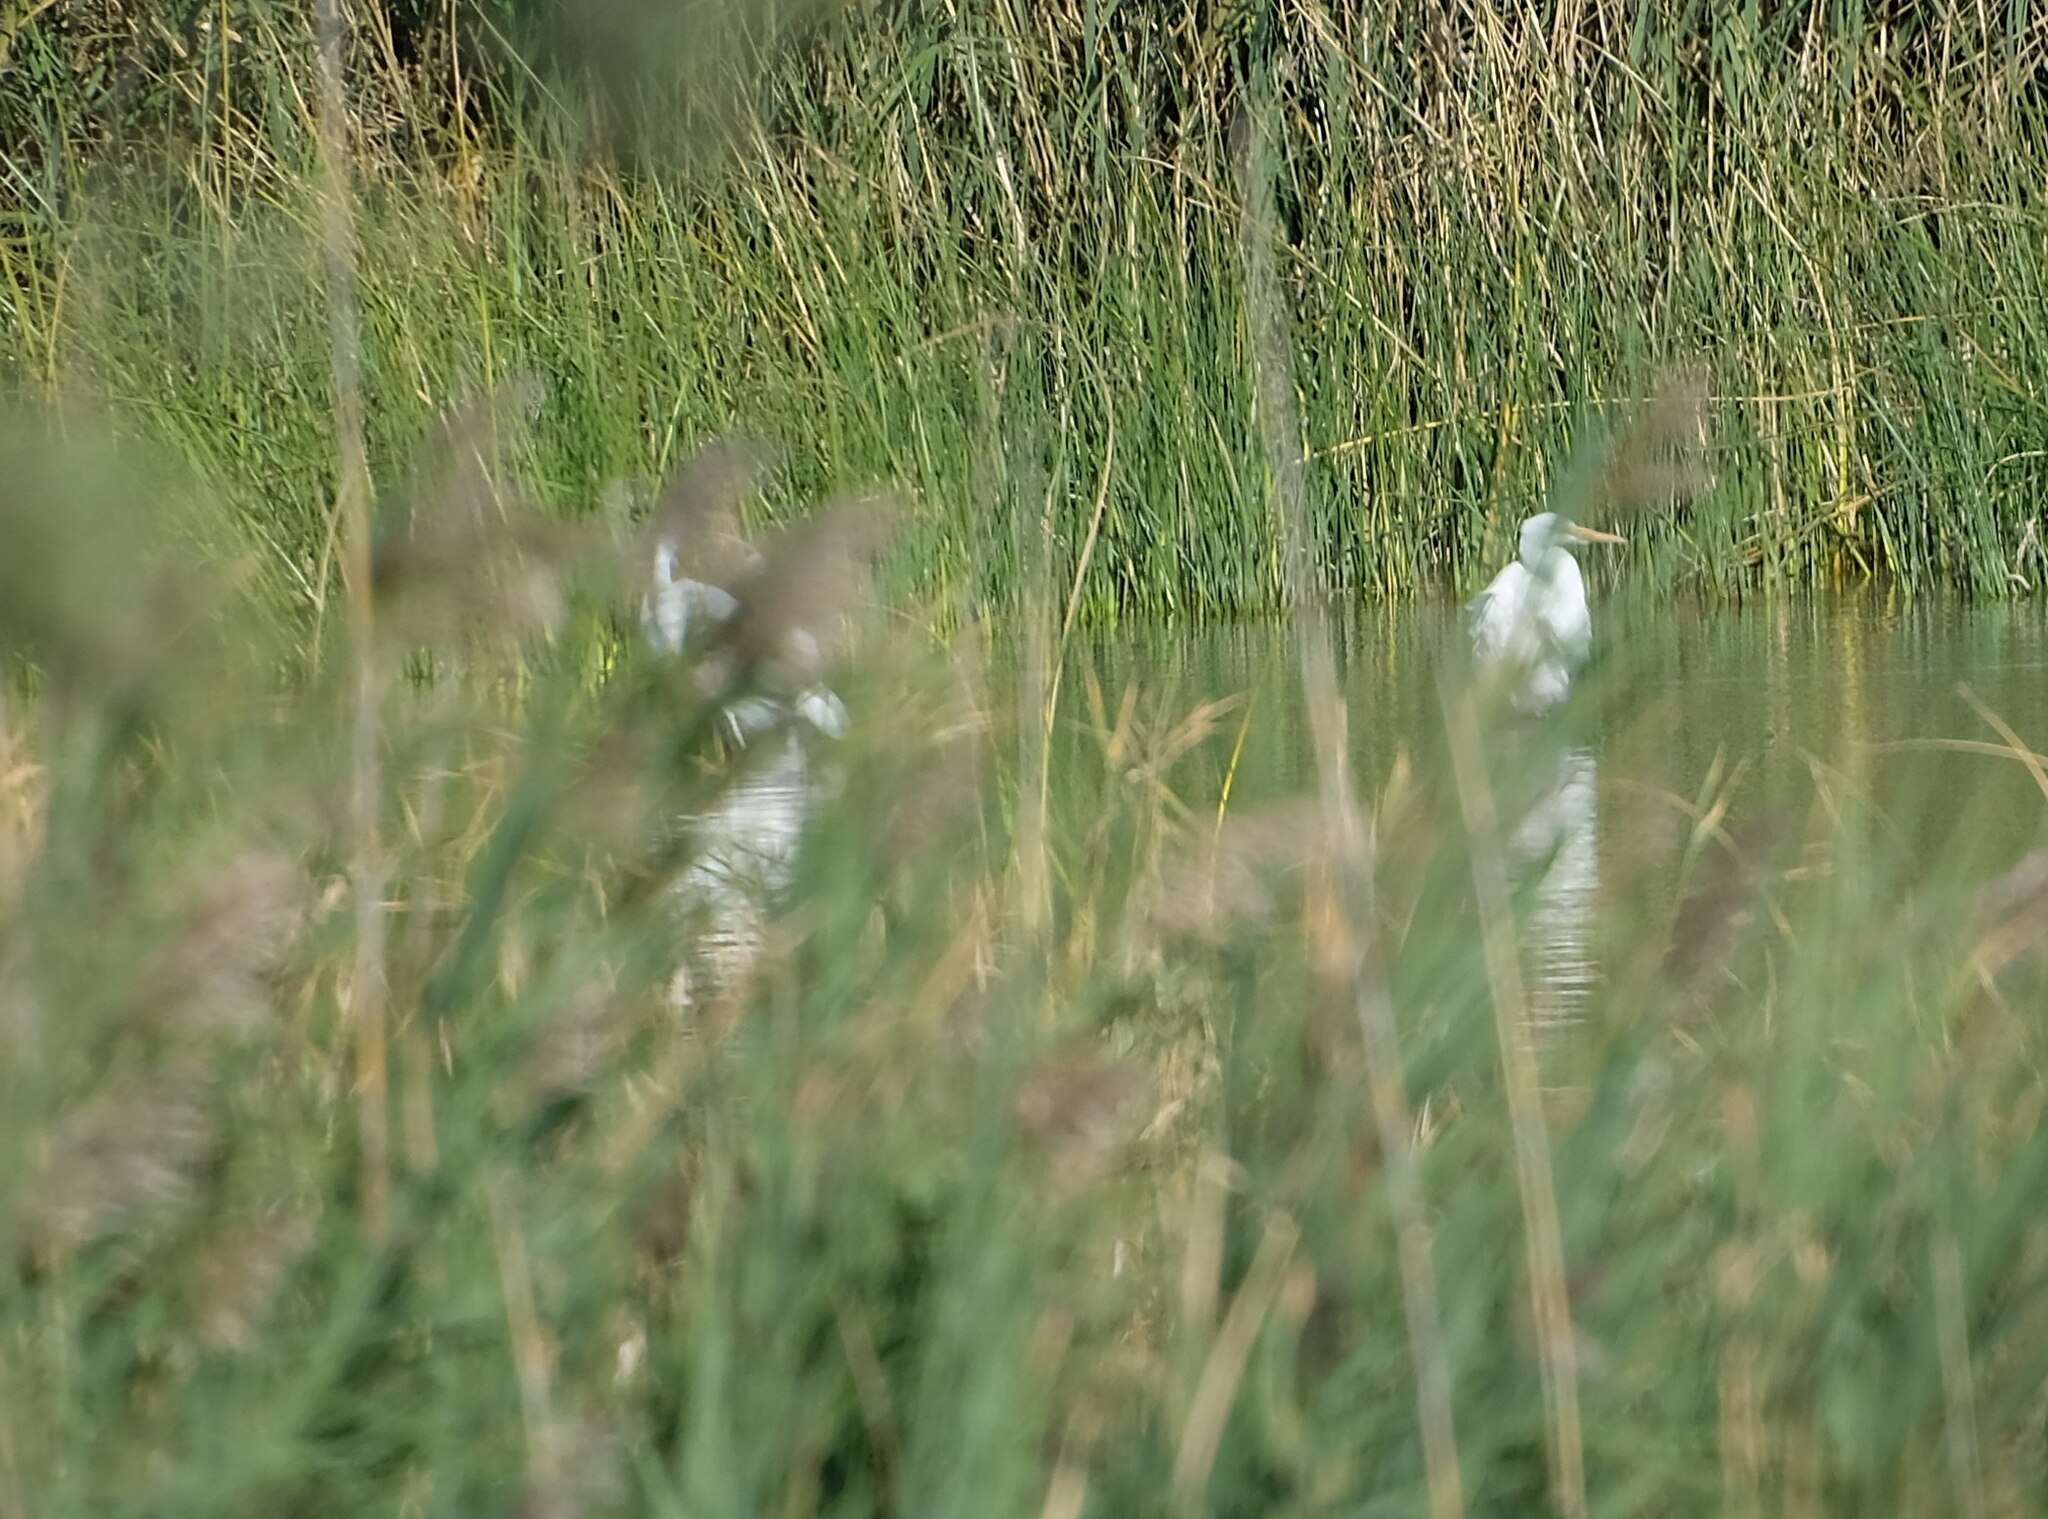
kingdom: Animalia
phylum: Chordata
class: Aves
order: Pelecaniformes
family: Ardeidae
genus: Ardea
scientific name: Ardea alba
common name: Great egret
